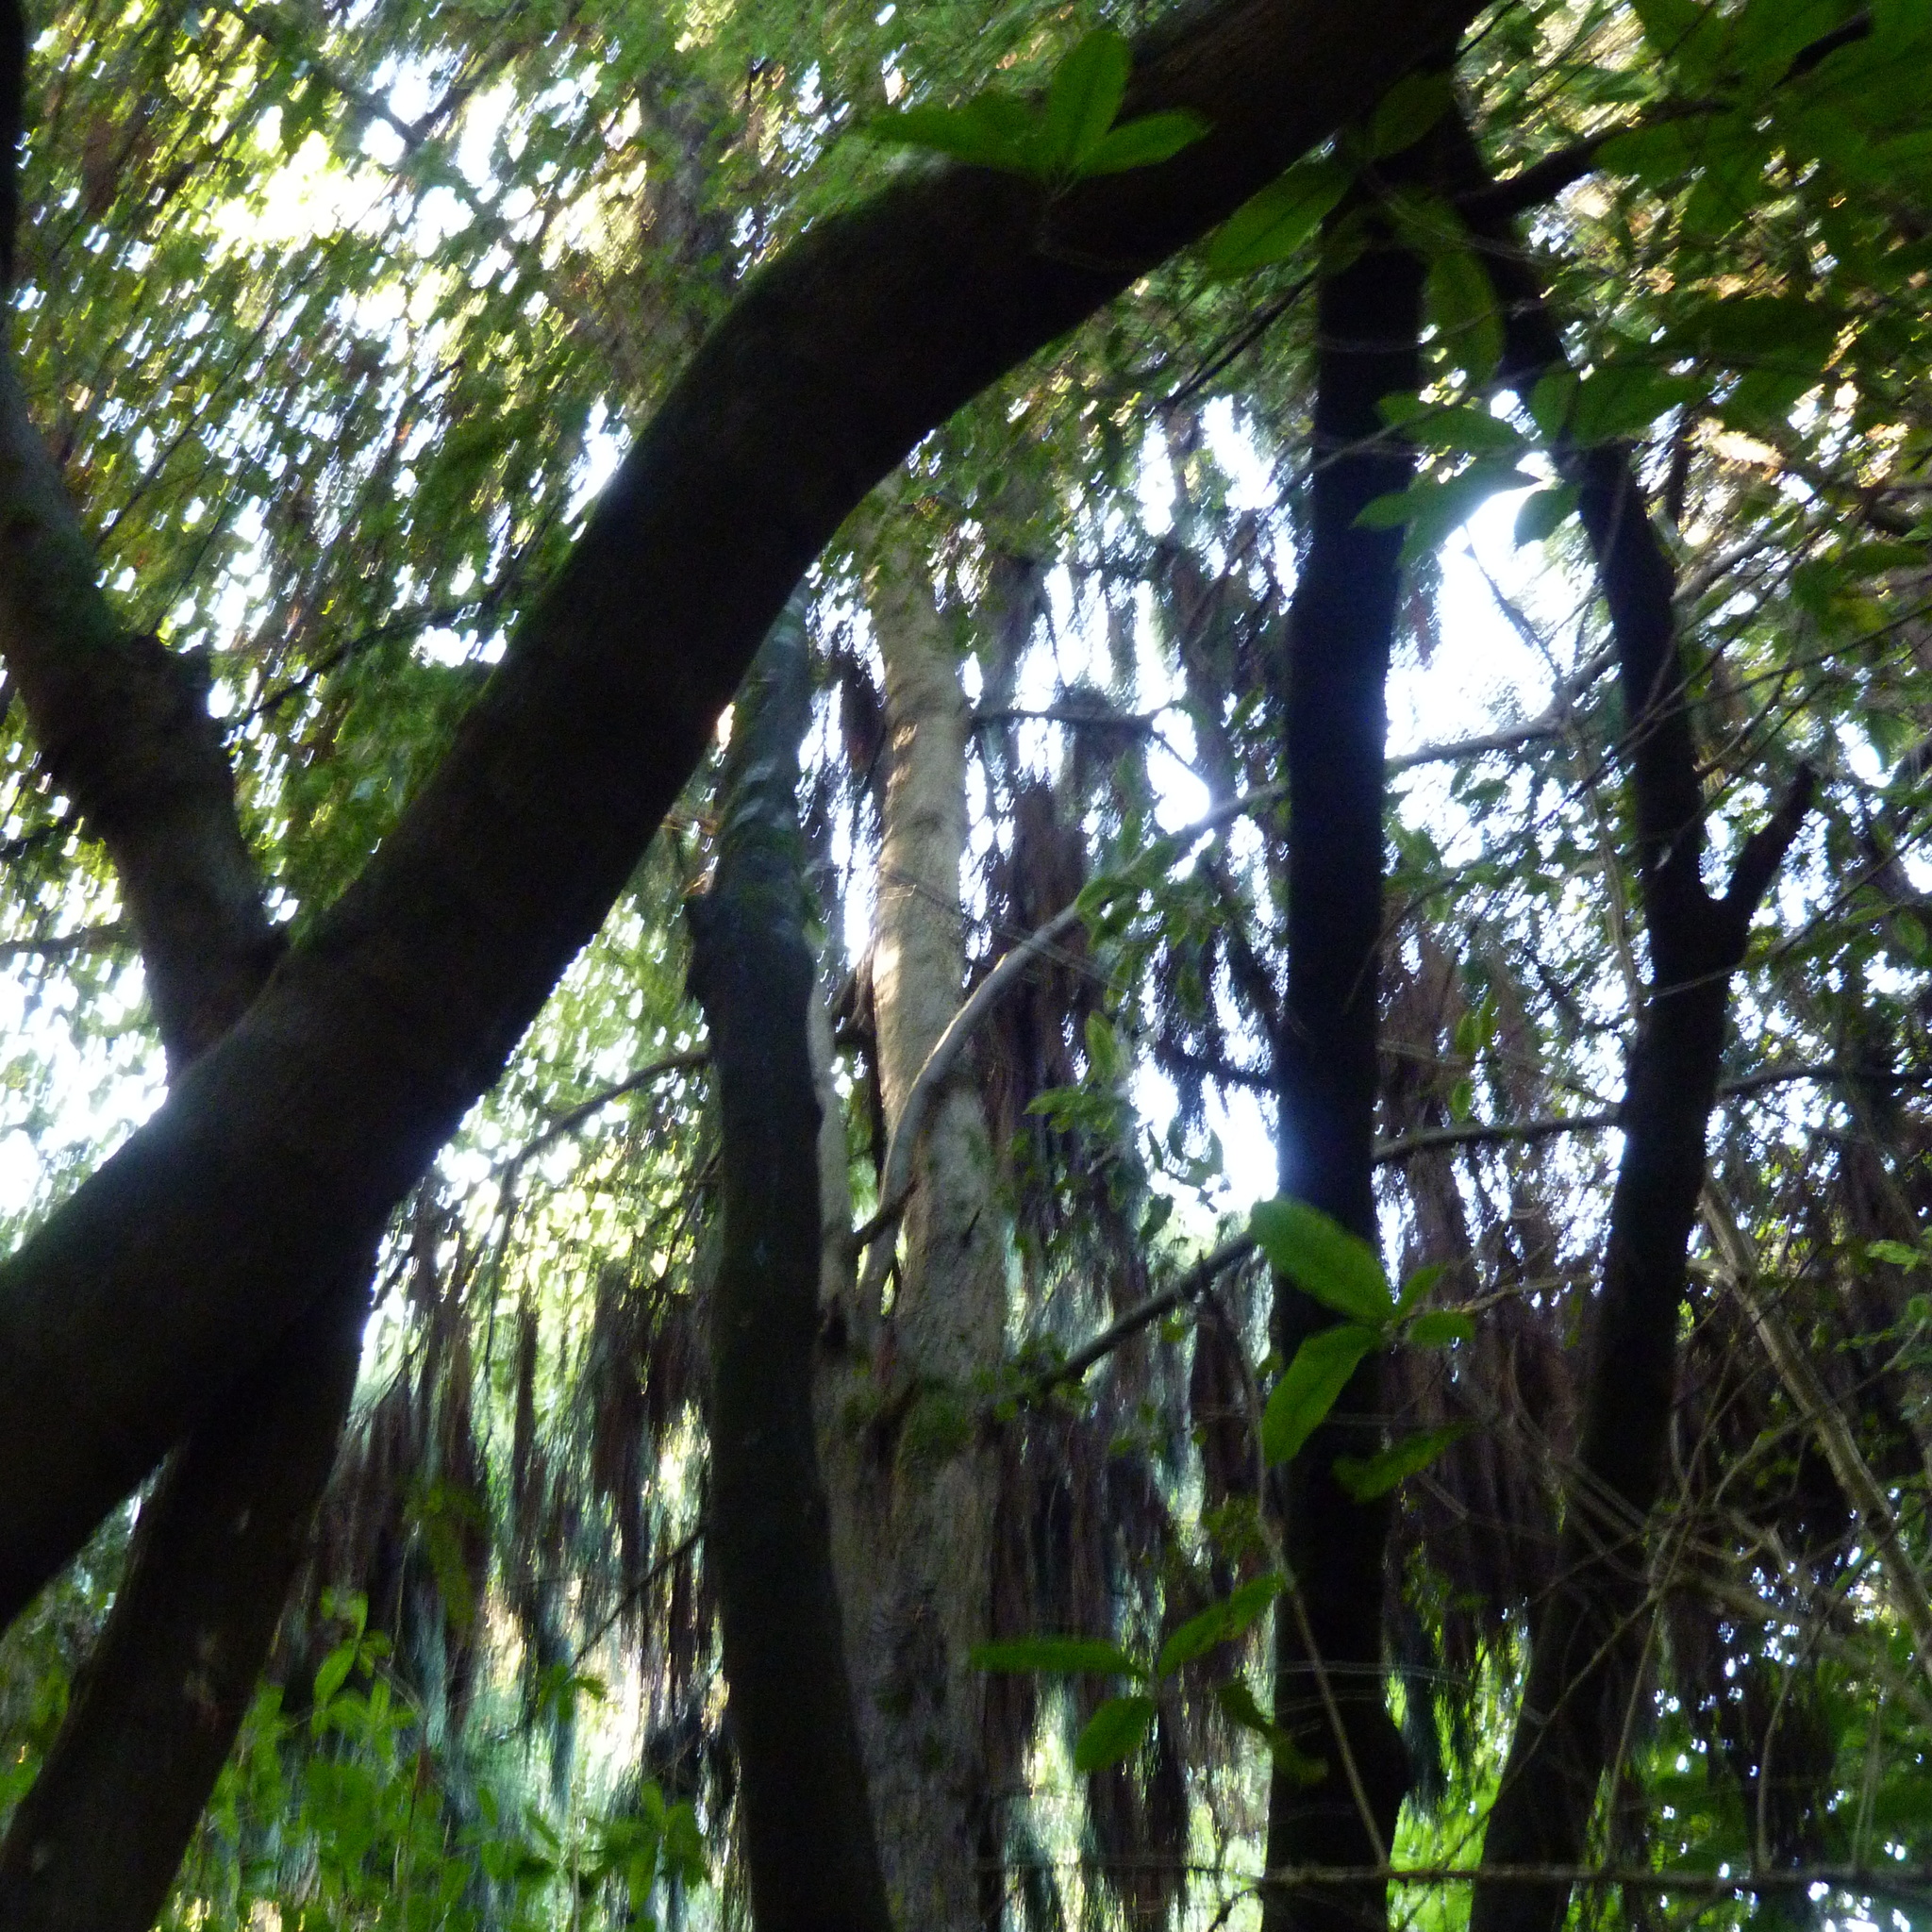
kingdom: Plantae
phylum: Tracheophyta
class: Pinopsida
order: Pinales
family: Podocarpaceae
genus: Dacrydium
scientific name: Dacrydium cupressinum
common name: Red pine
